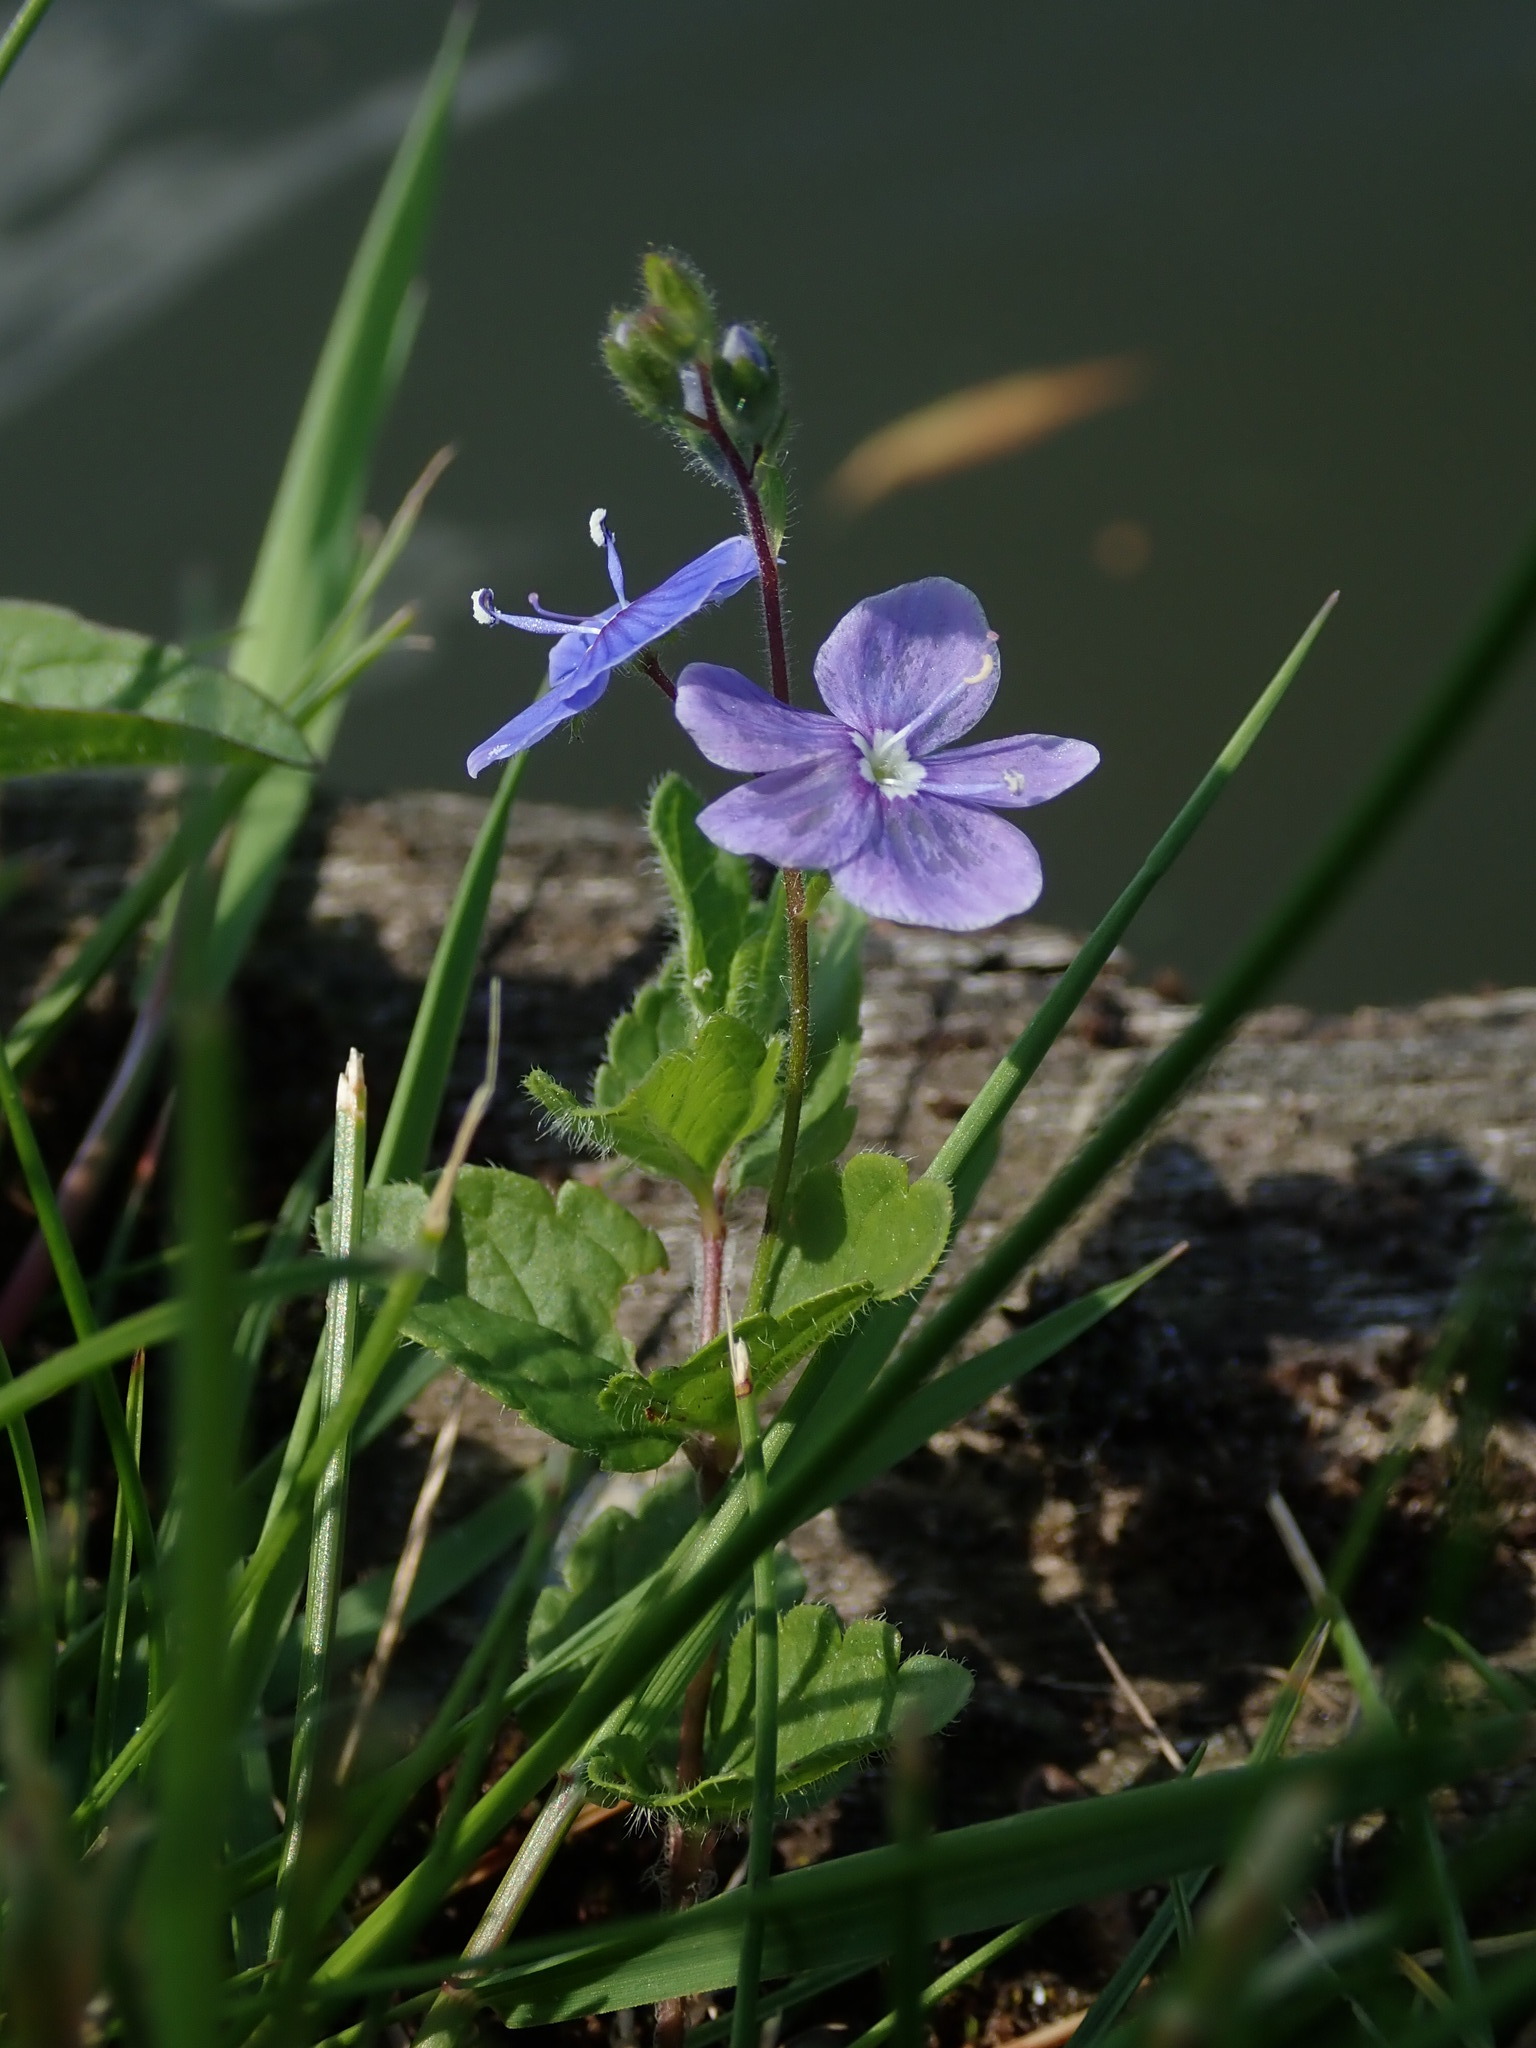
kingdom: Plantae
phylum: Tracheophyta
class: Magnoliopsida
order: Lamiales
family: Plantaginaceae
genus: Veronica
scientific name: Veronica chamaedrys
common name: Germander speedwell
